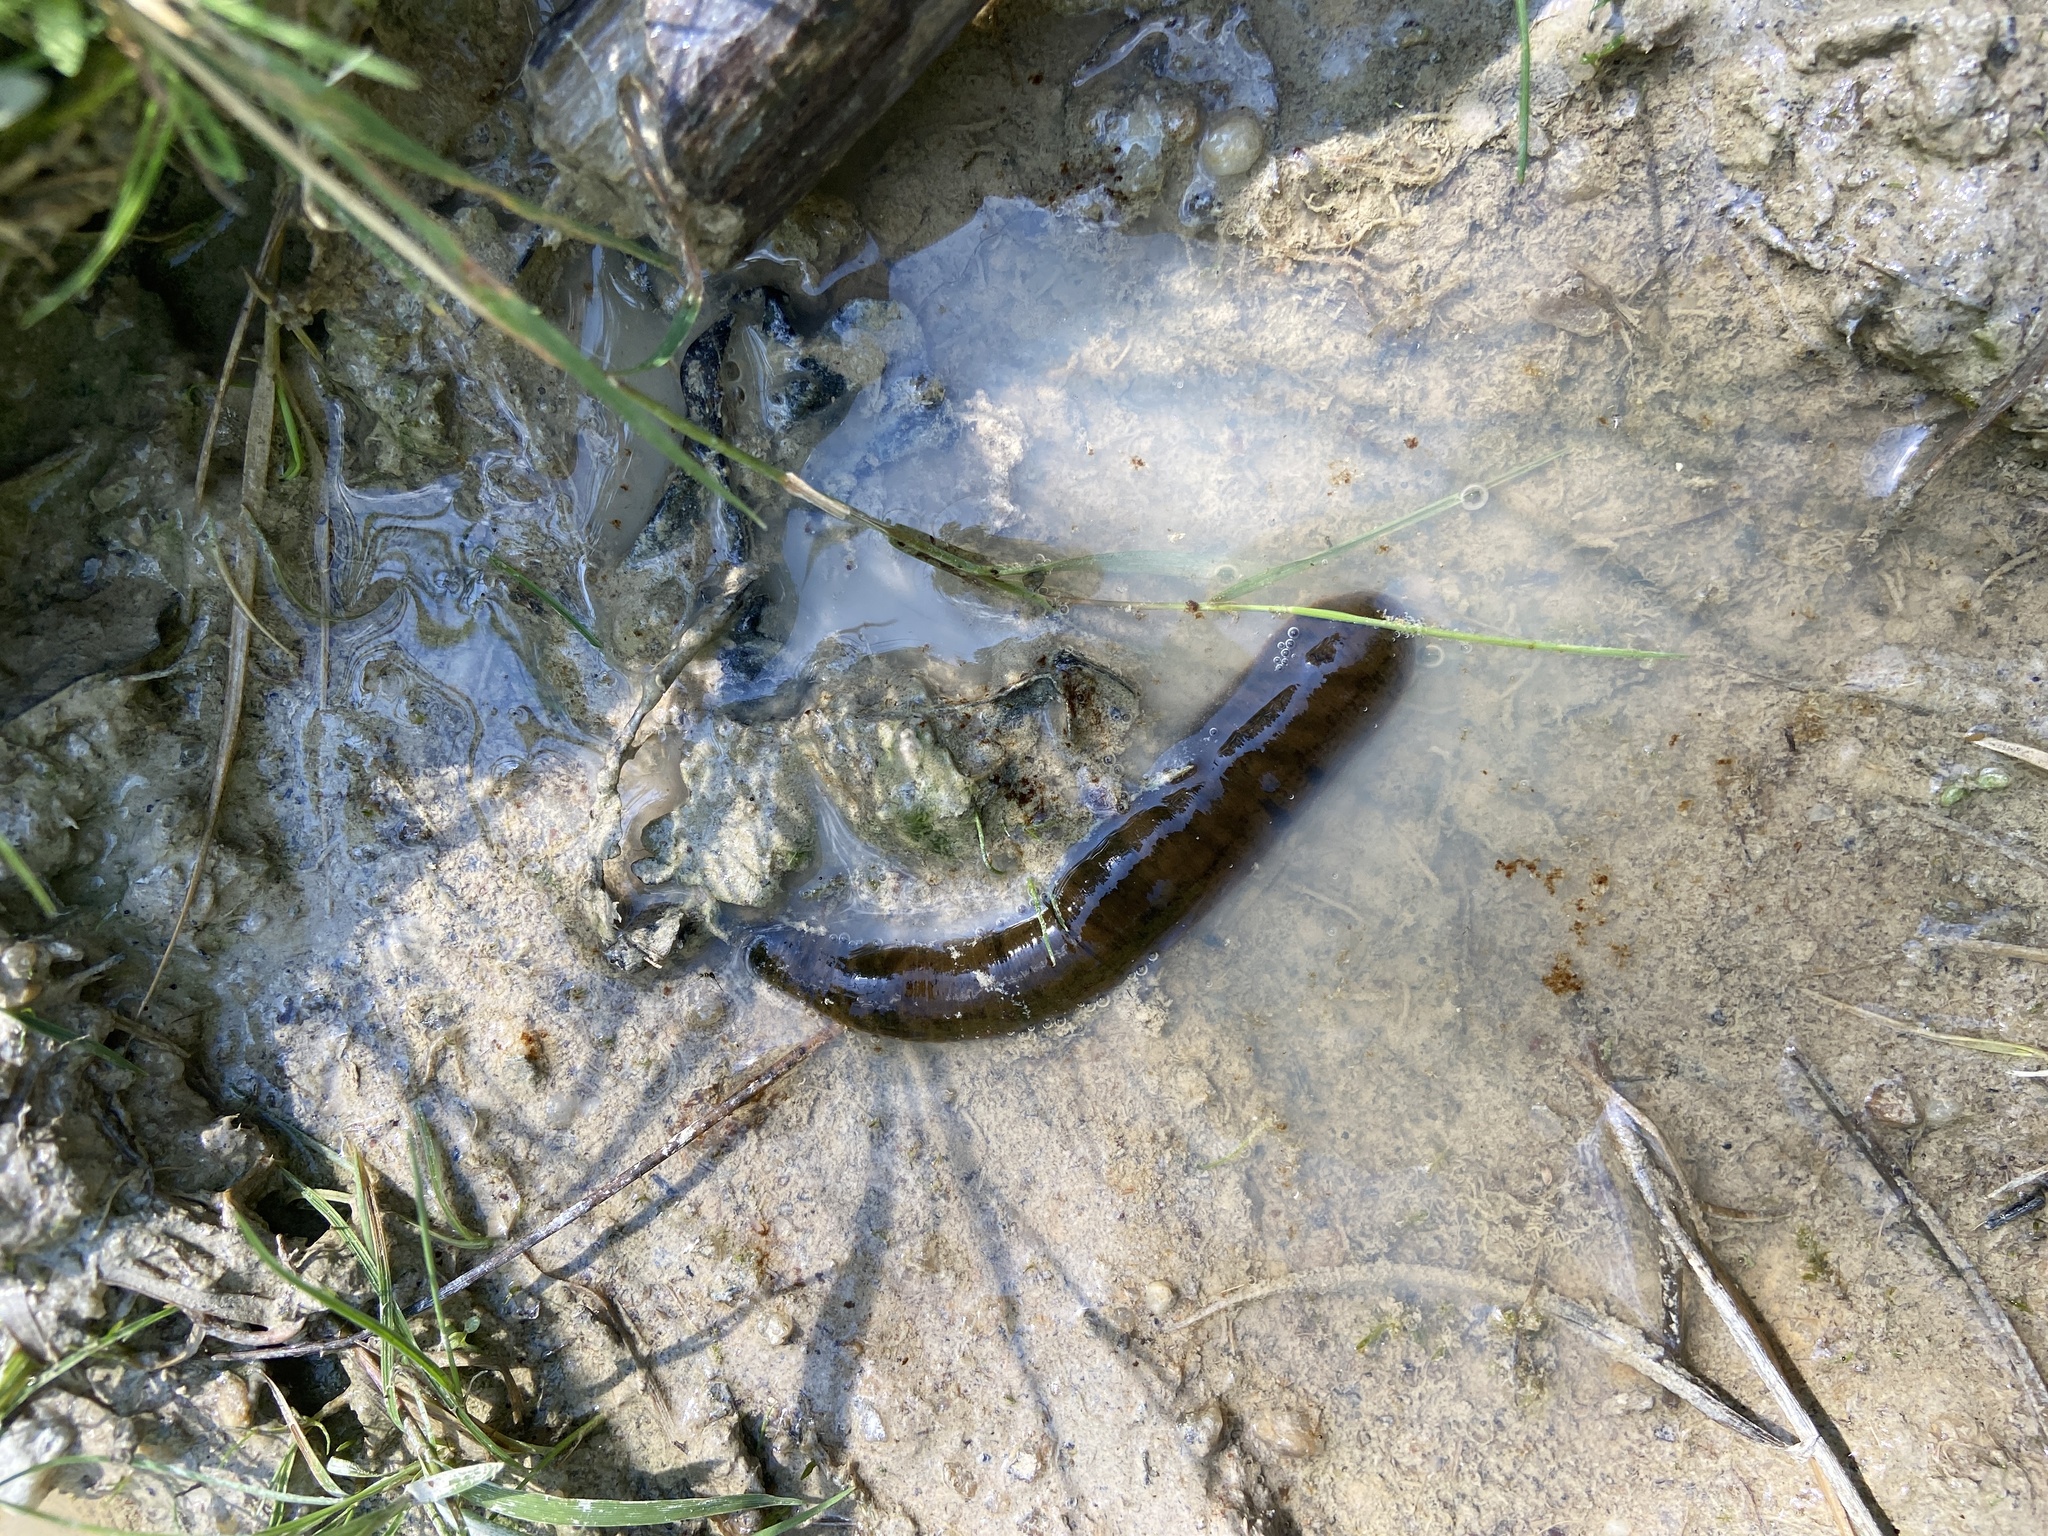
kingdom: Animalia
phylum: Annelida
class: Clitellata
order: Arhynchobdellida
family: Haemopidae
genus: Haemopis
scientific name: Haemopis sanguisuga
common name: Horse leech
